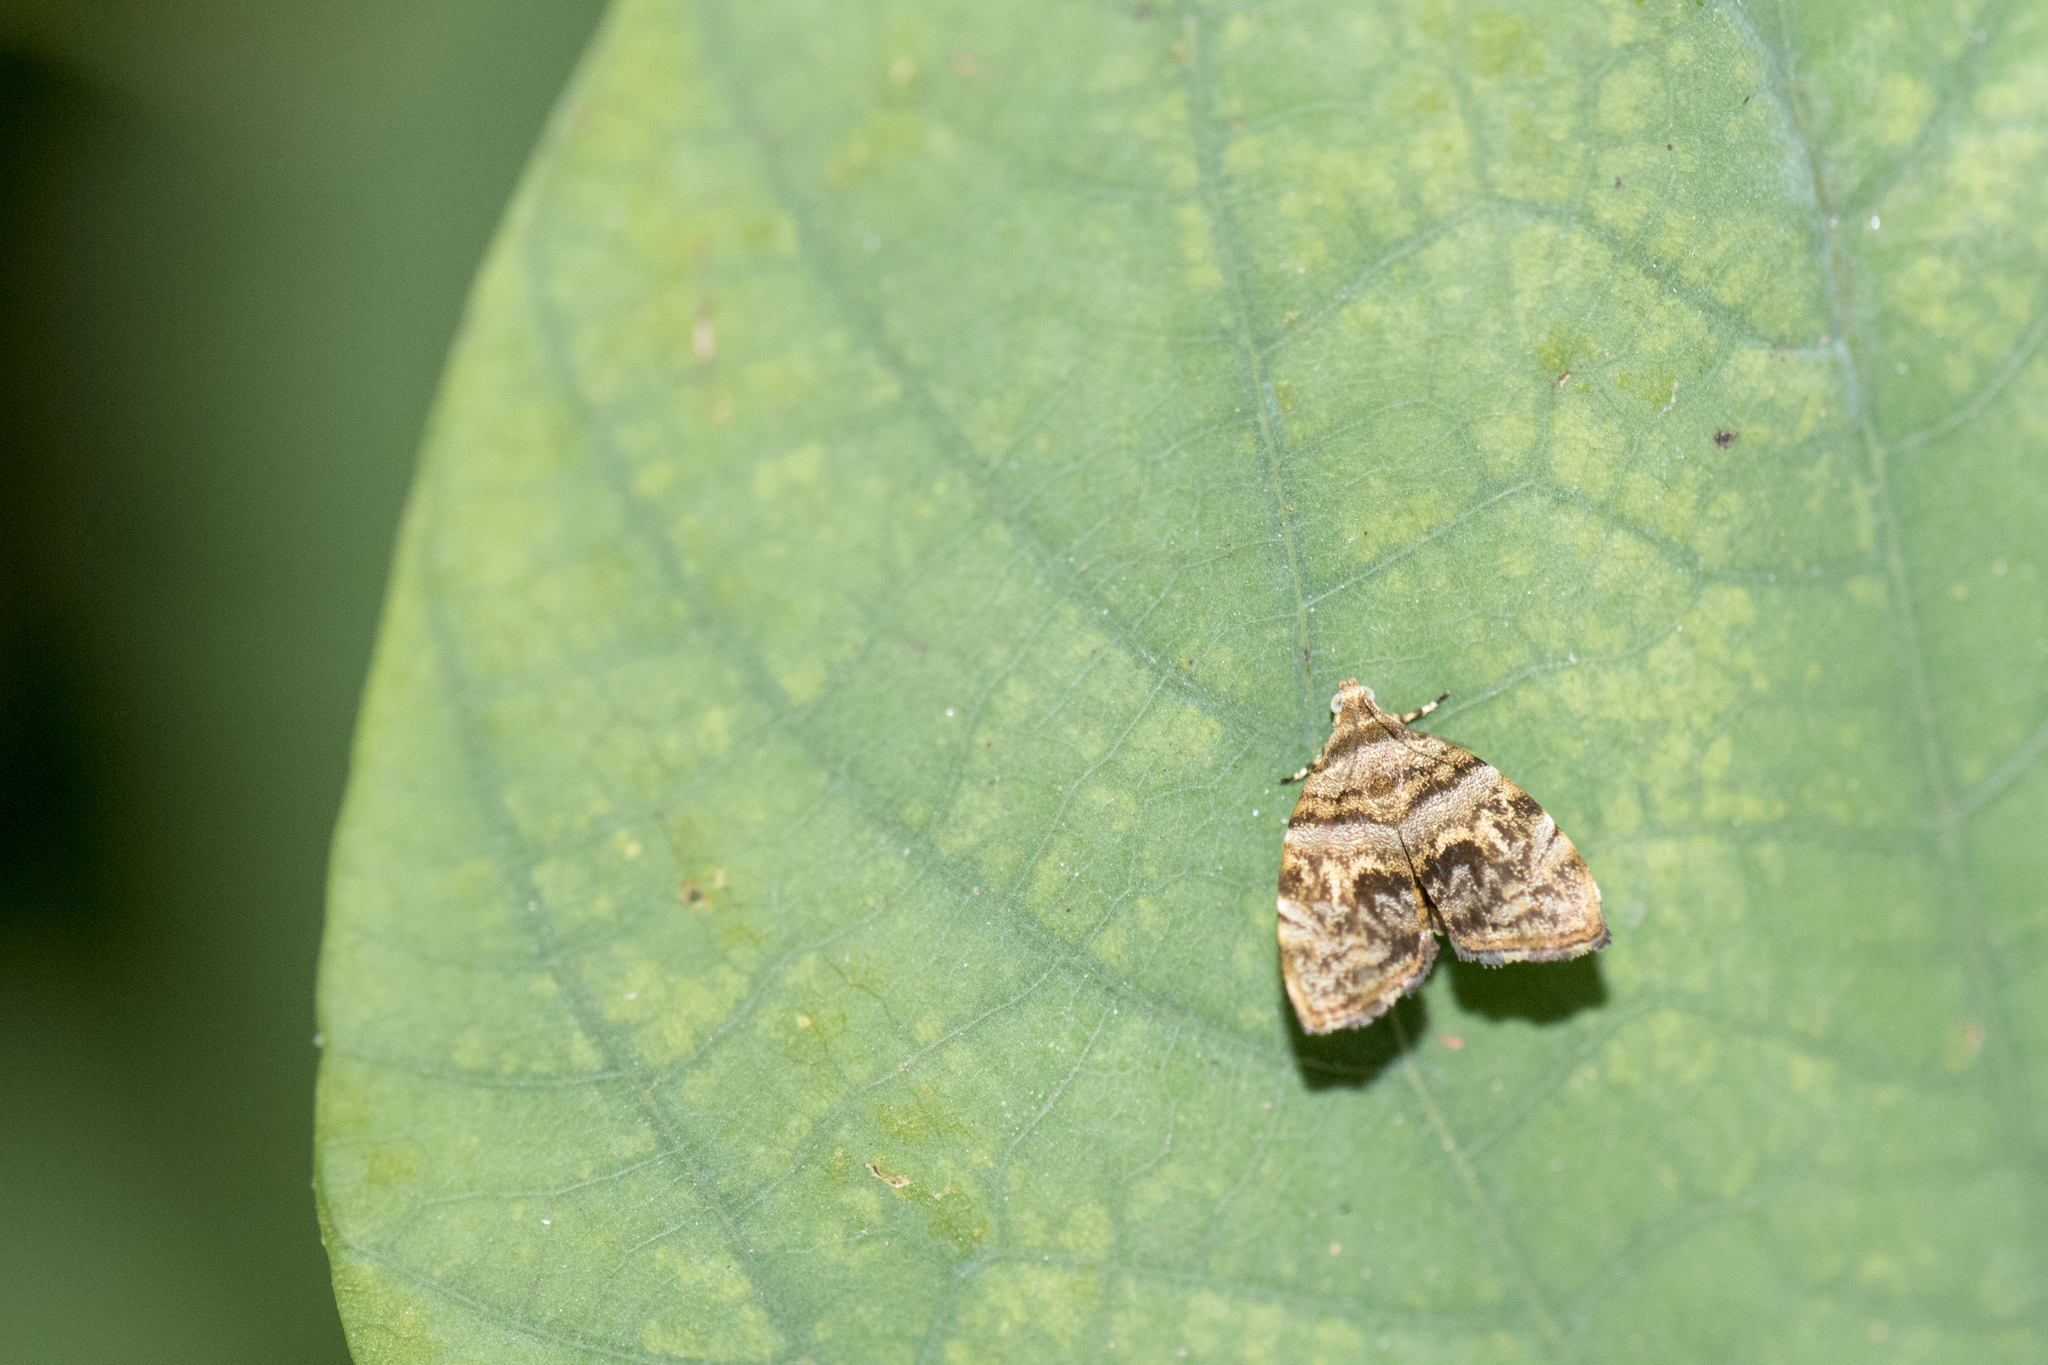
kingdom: Animalia
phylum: Arthropoda
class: Insecta
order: Lepidoptera
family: Choreutidae
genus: Choreutis
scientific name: Choreutis ophiosema
